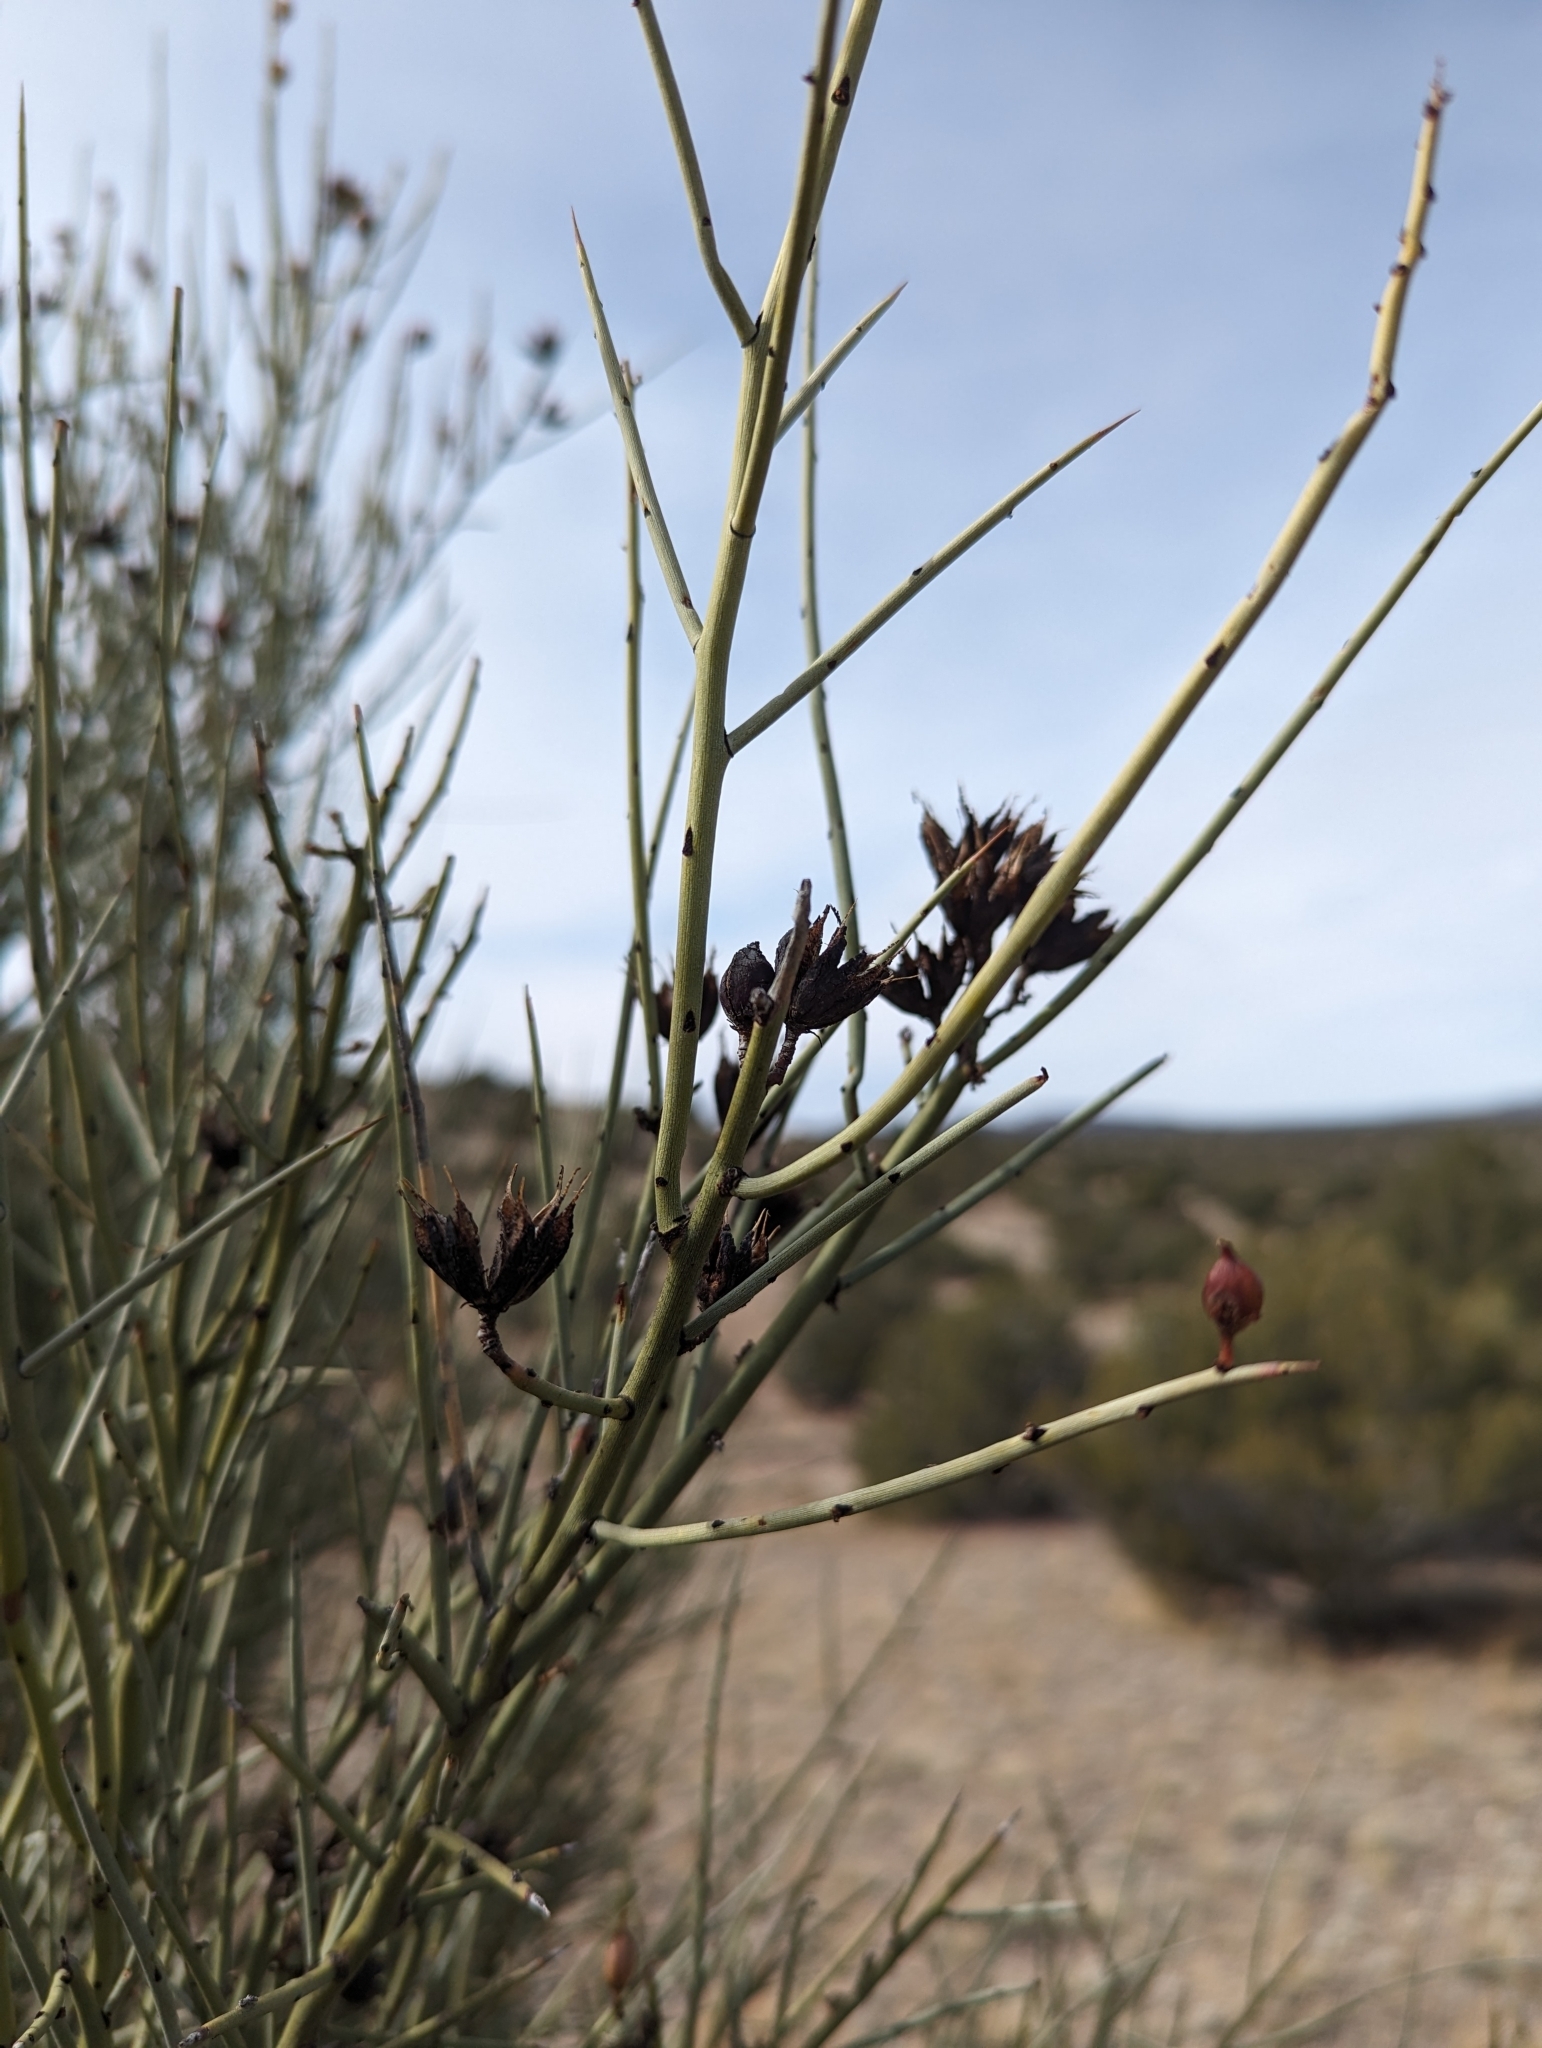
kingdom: Plantae
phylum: Tracheophyta
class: Magnoliopsida
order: Celastrales
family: Celastraceae
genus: Canotia
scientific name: Canotia holacantha
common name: Crucifixion thorns
